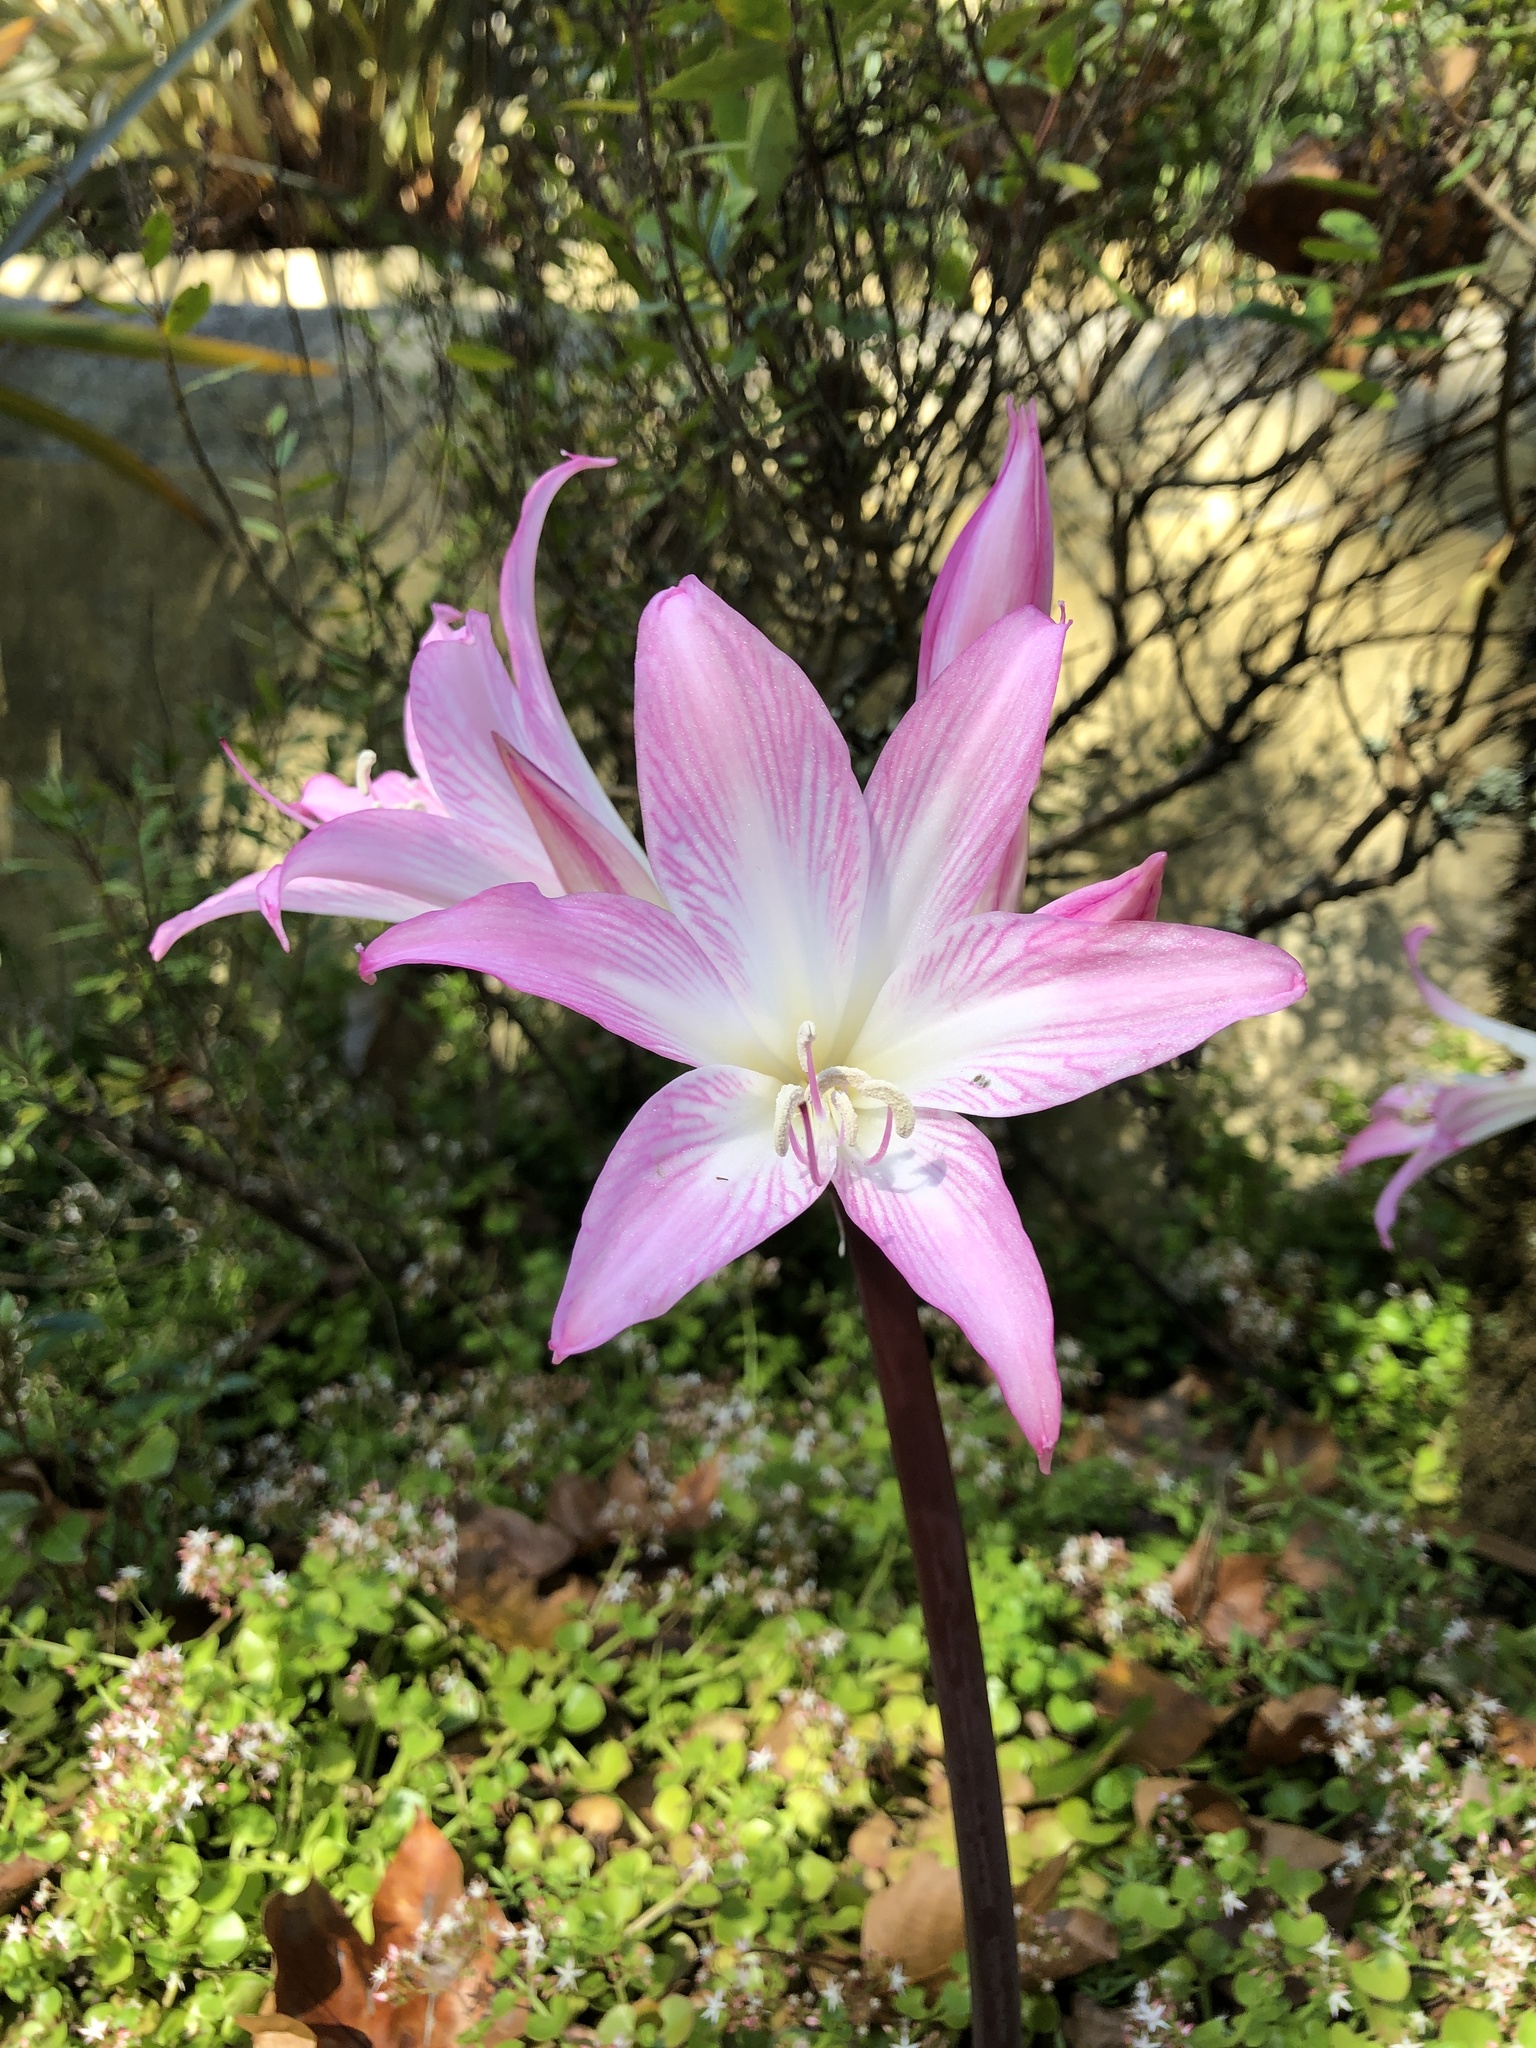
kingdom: Plantae
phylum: Tracheophyta
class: Liliopsida
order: Asparagales
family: Amaryllidaceae
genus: Amaryllis
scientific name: Amaryllis belladonna
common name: Jersey lily
